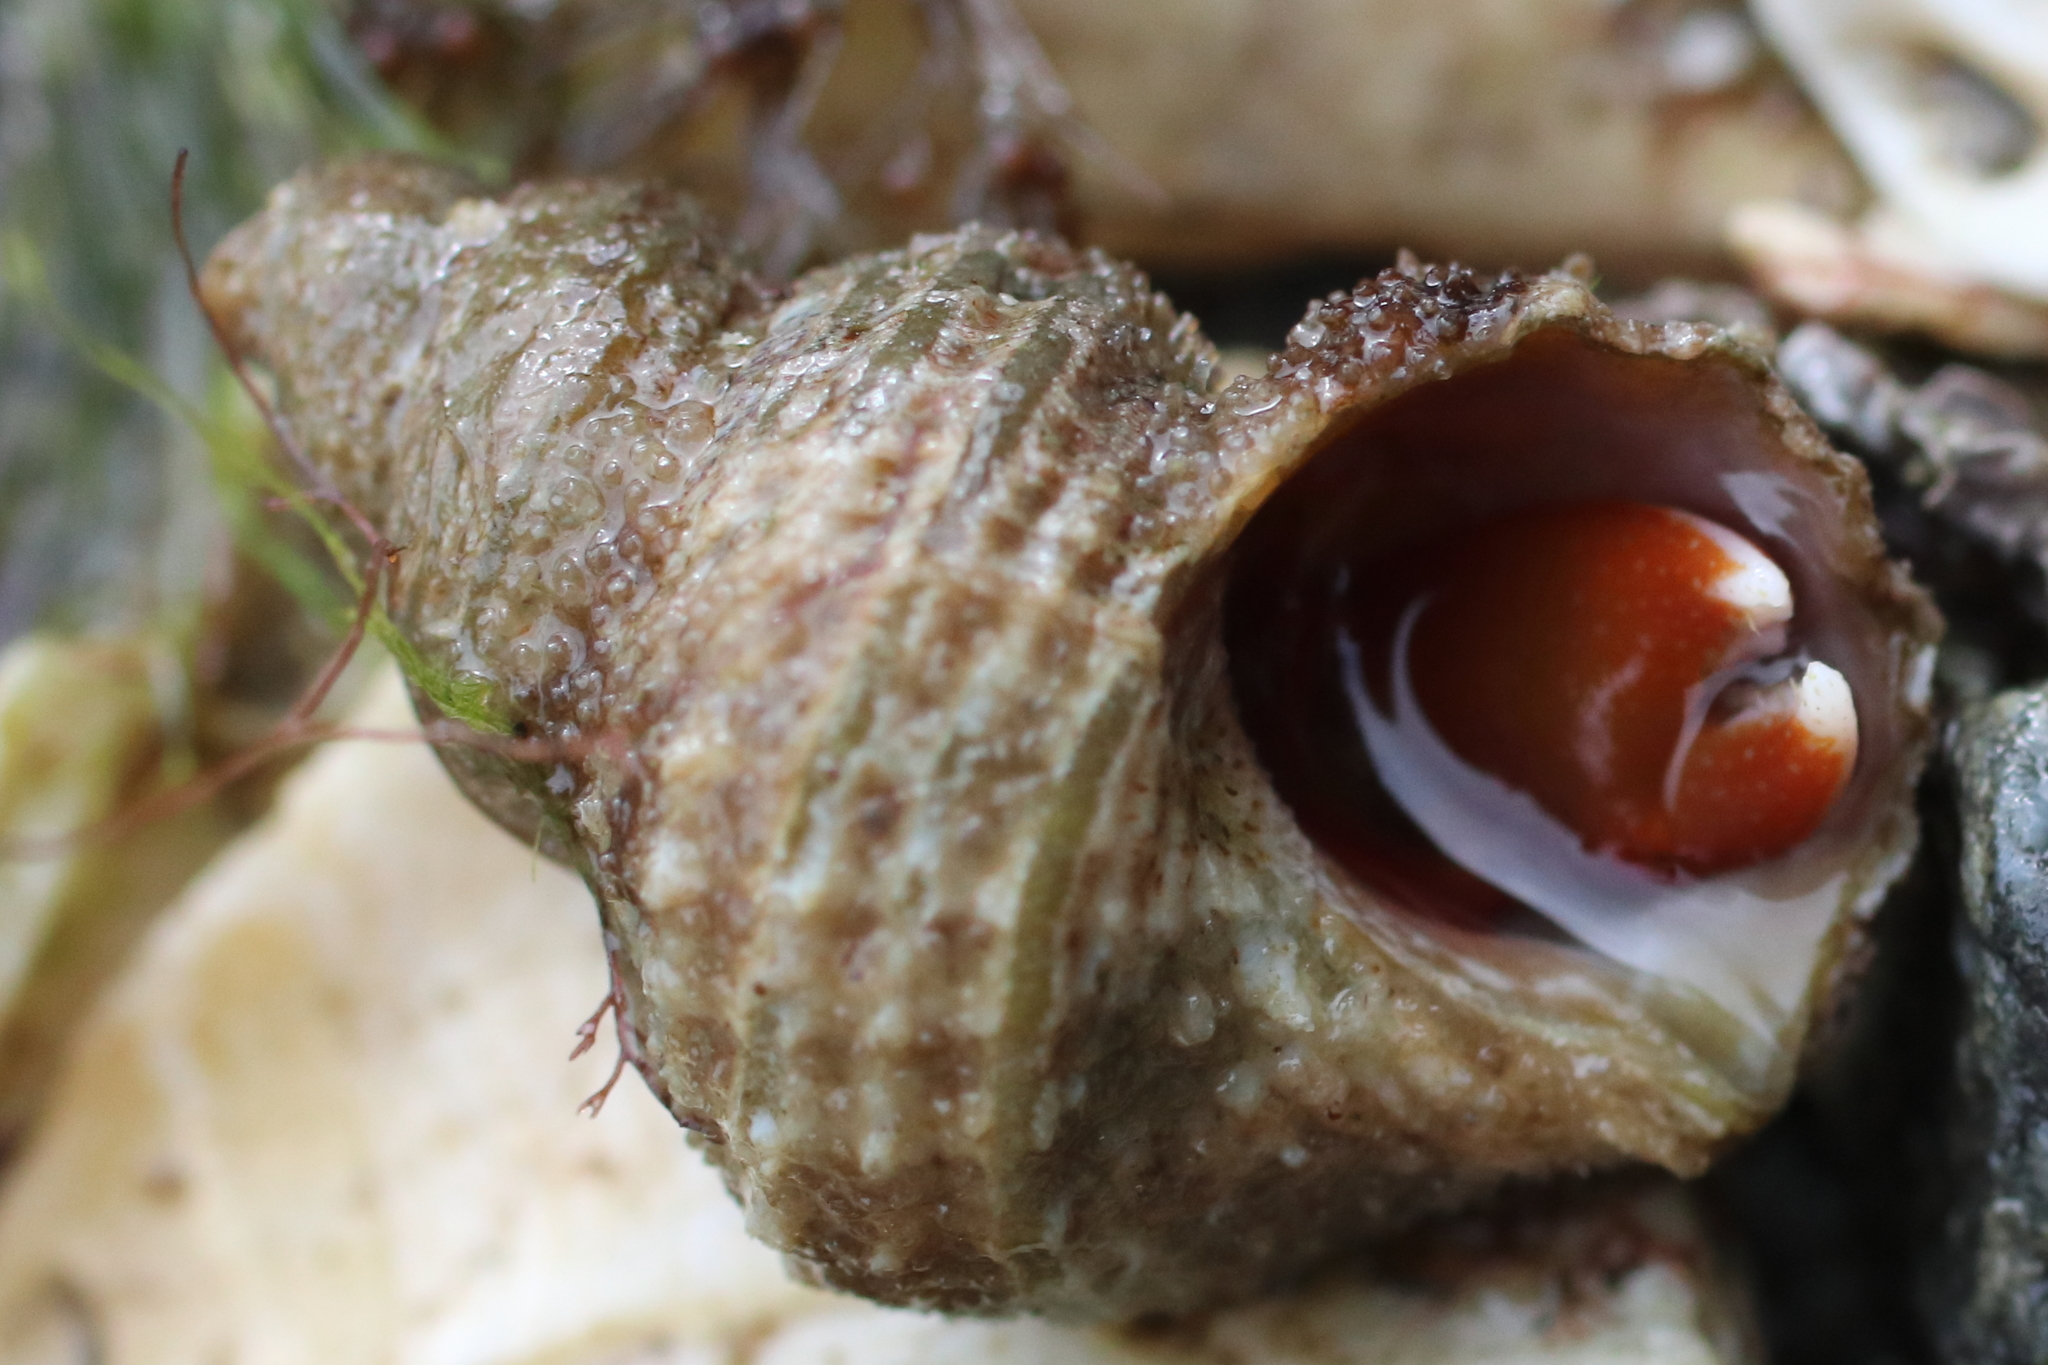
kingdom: Animalia
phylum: Arthropoda
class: Malacostraca
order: Decapoda
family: Paguridae
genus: Elassochirus
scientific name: Elassochirus gilli
